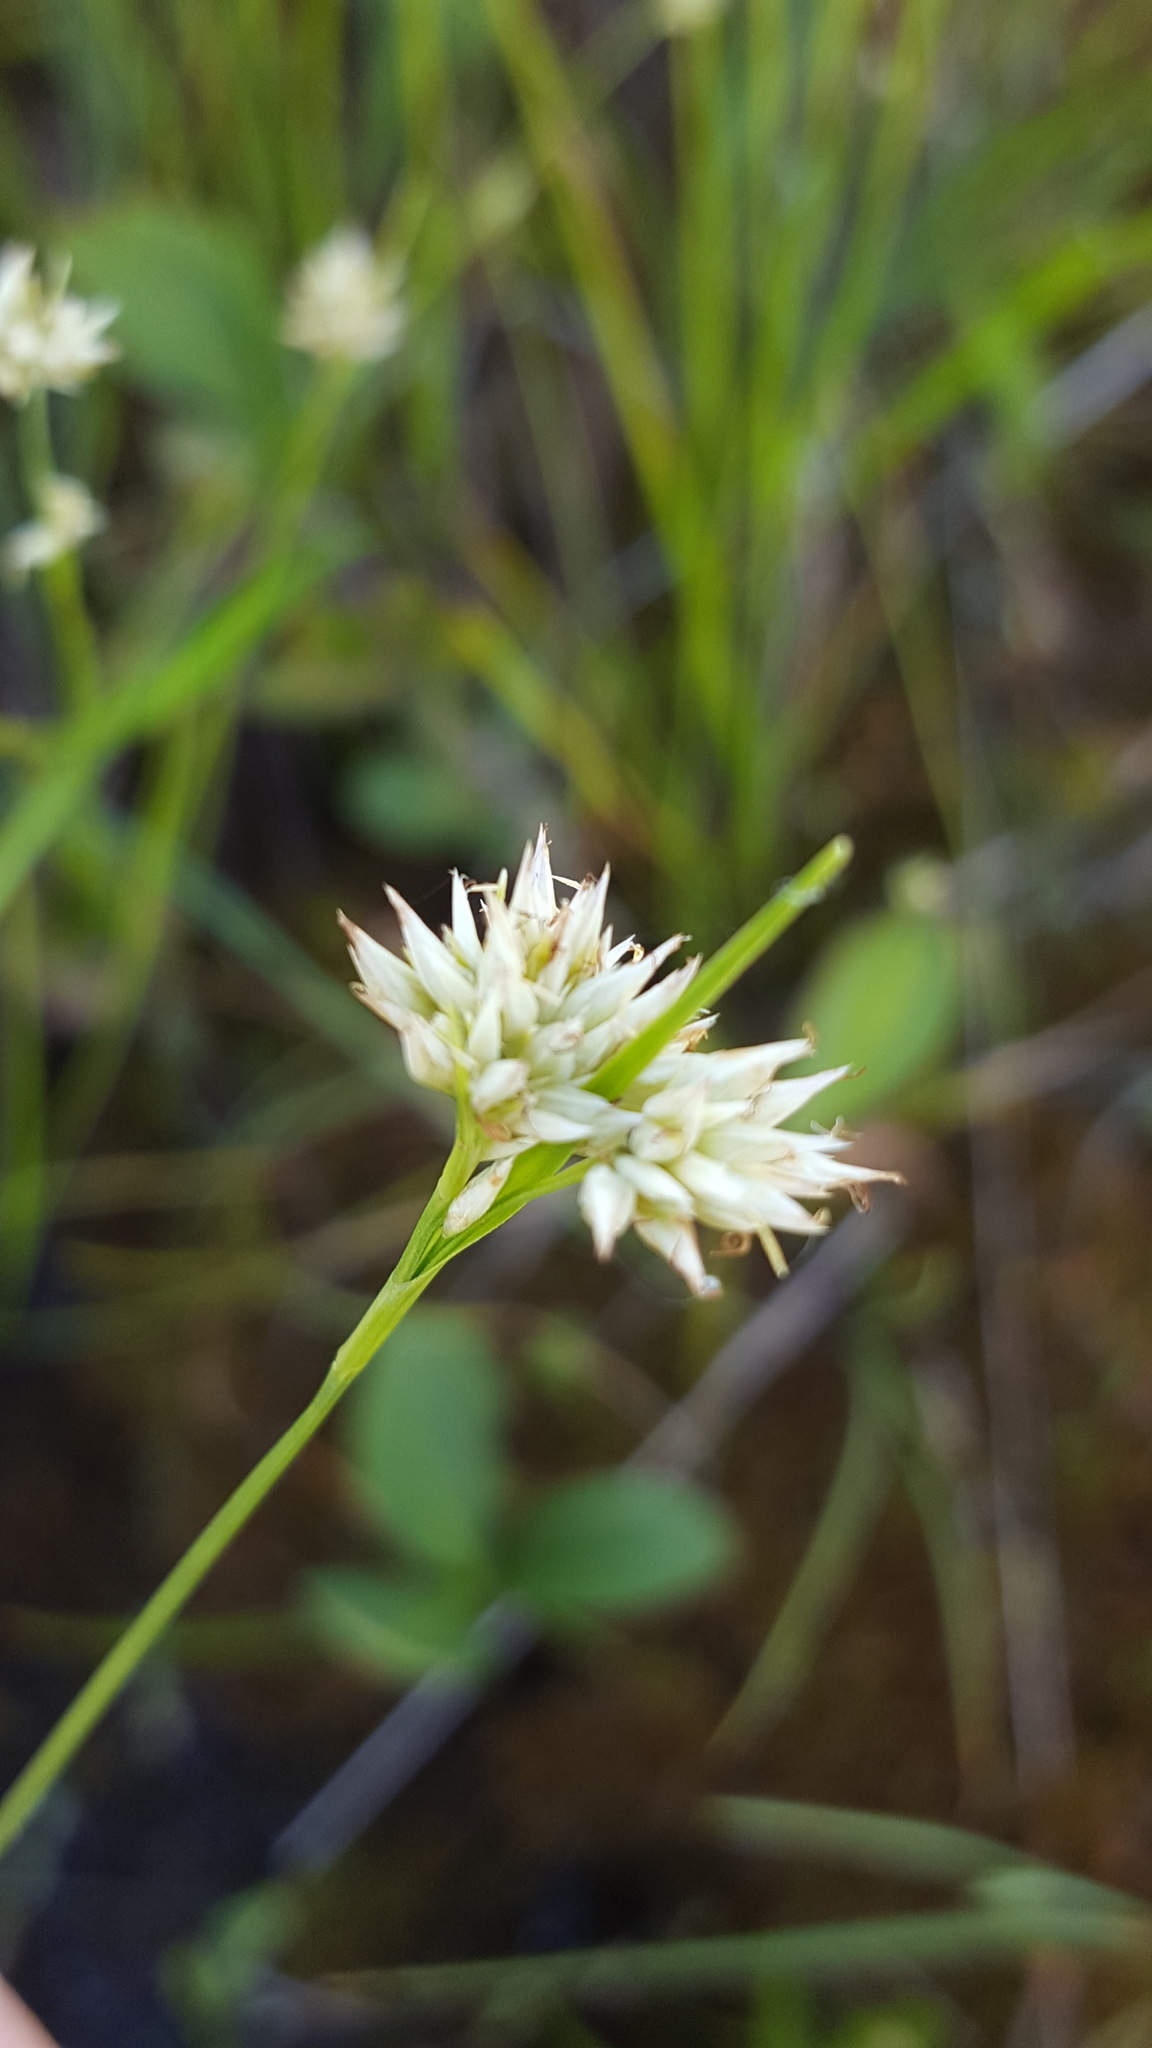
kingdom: Plantae
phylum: Tracheophyta
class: Liliopsida
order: Poales
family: Cyperaceae
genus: Rhynchospora
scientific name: Rhynchospora alba
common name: White beak-sedge
